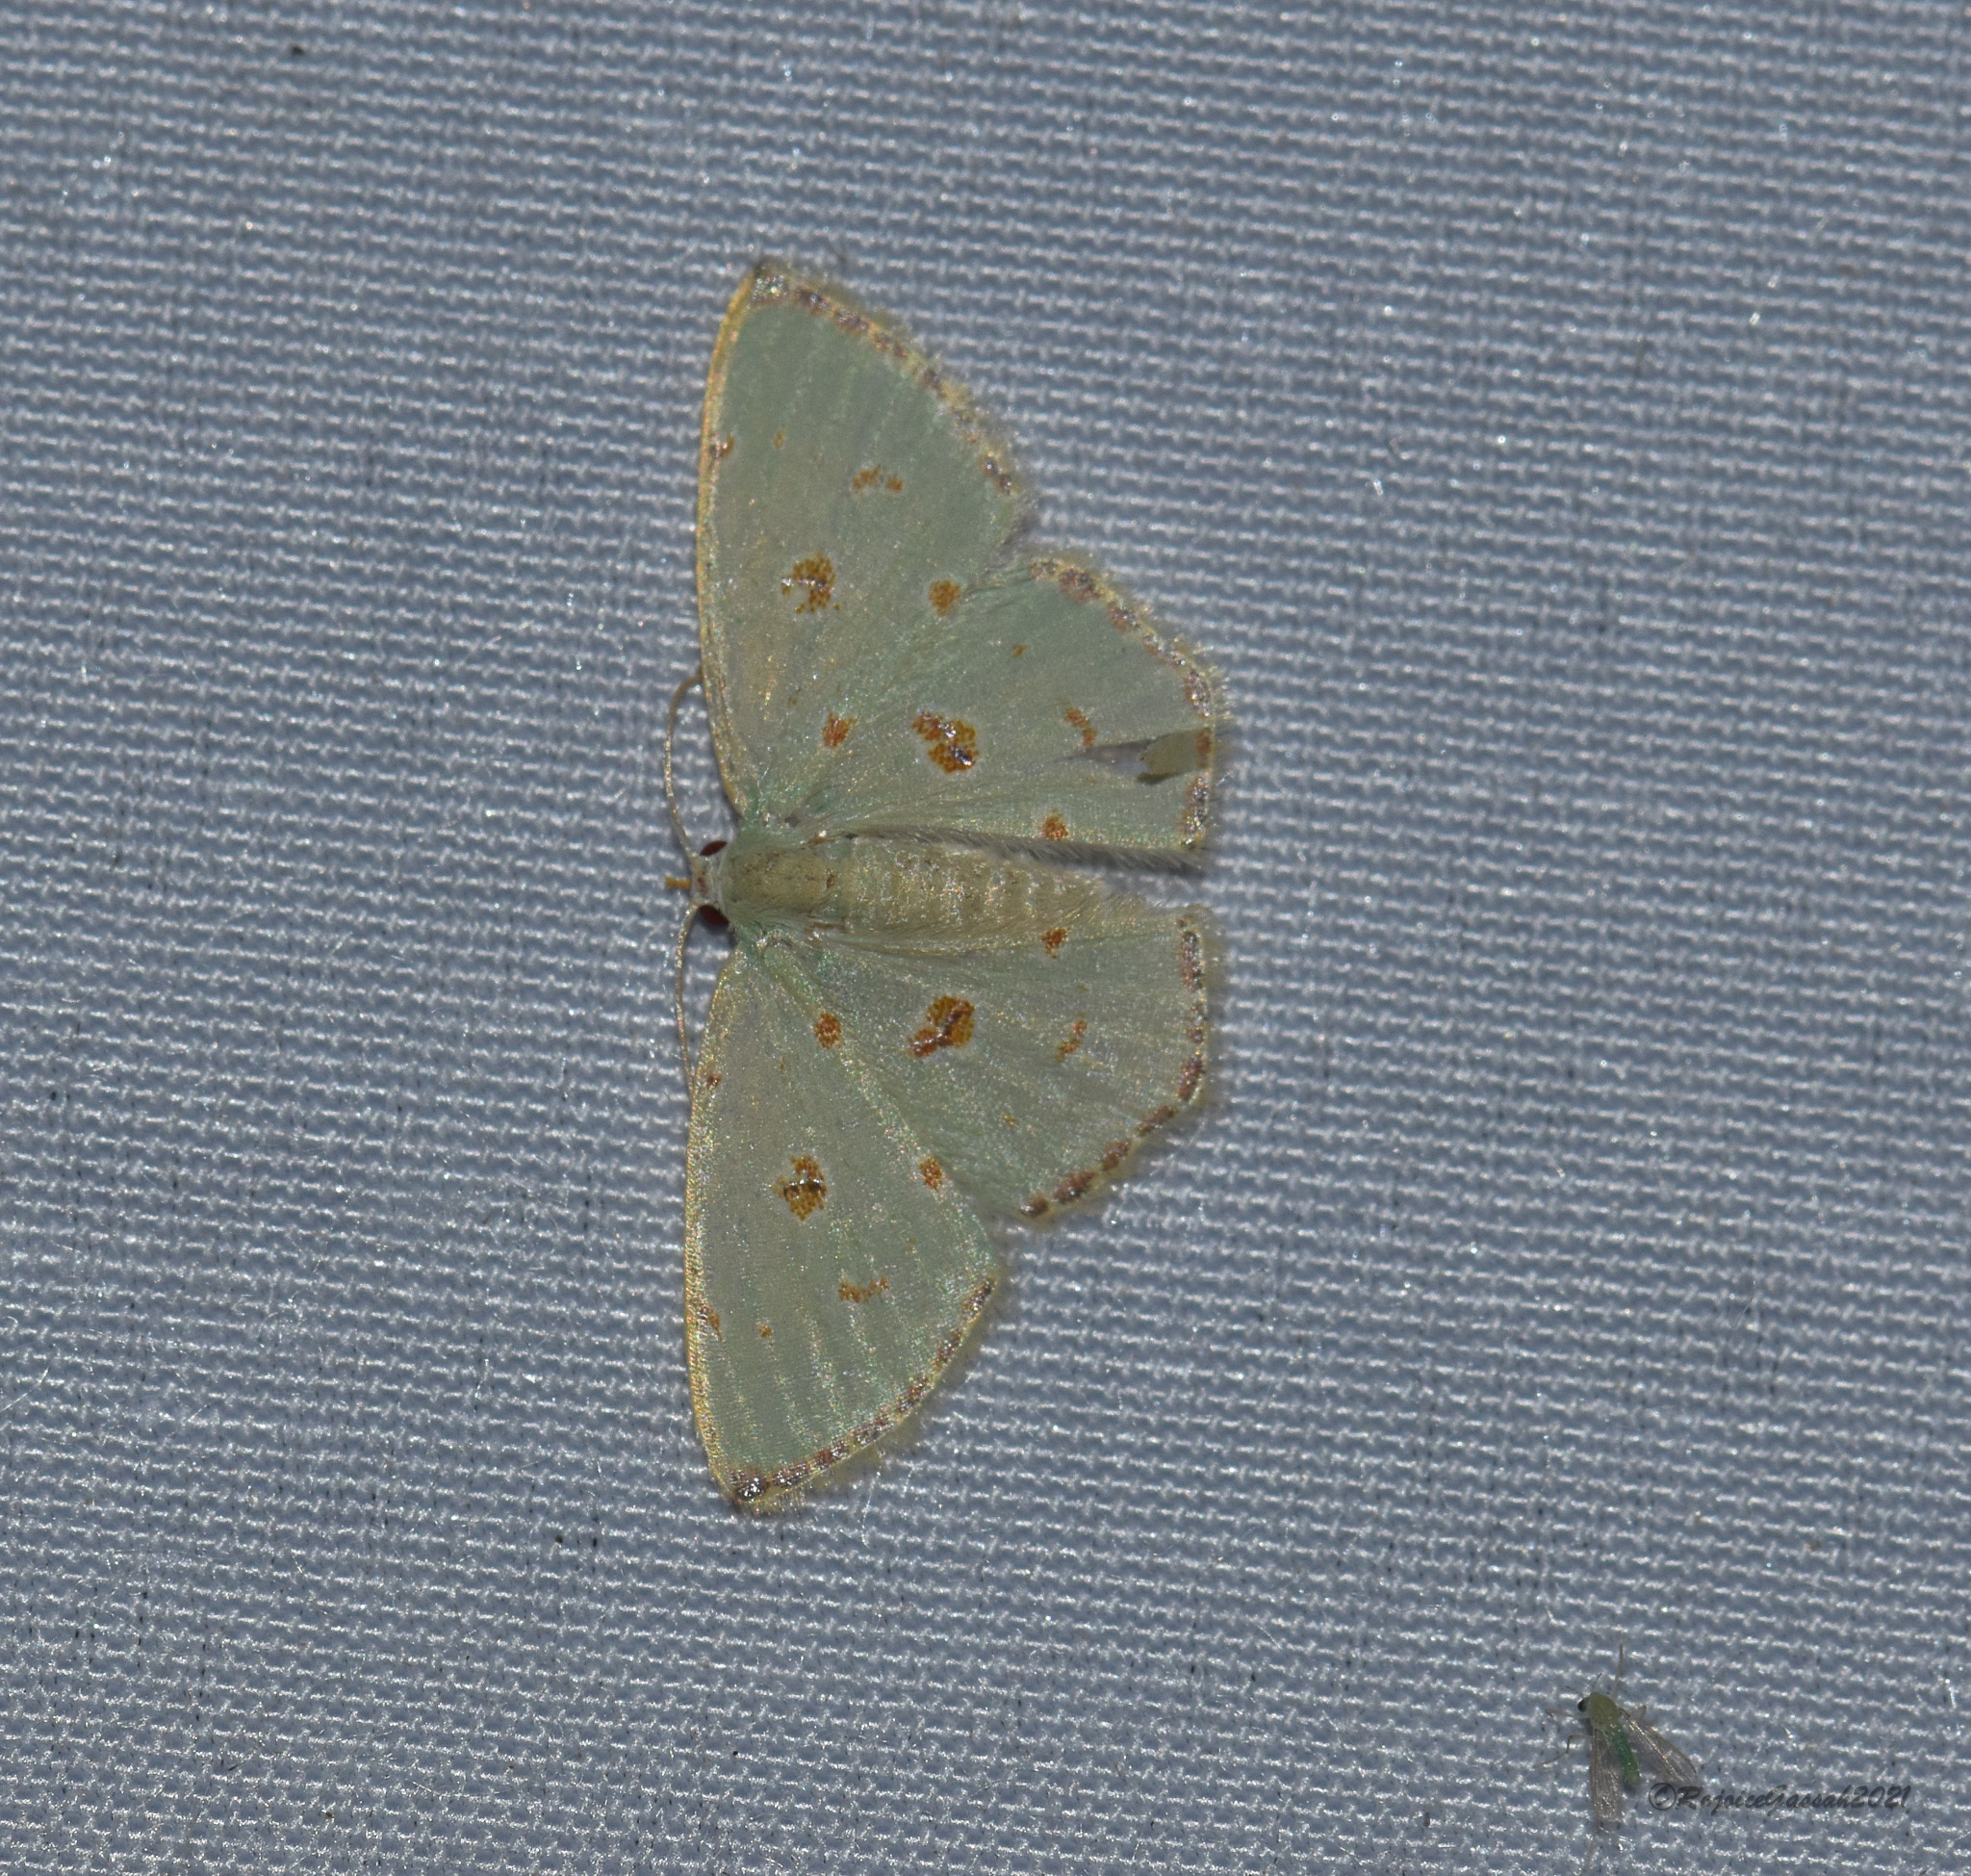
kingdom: Animalia
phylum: Arthropoda
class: Insecta
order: Lepidoptera
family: Geometridae
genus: Comostola
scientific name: Comostola laesaria
